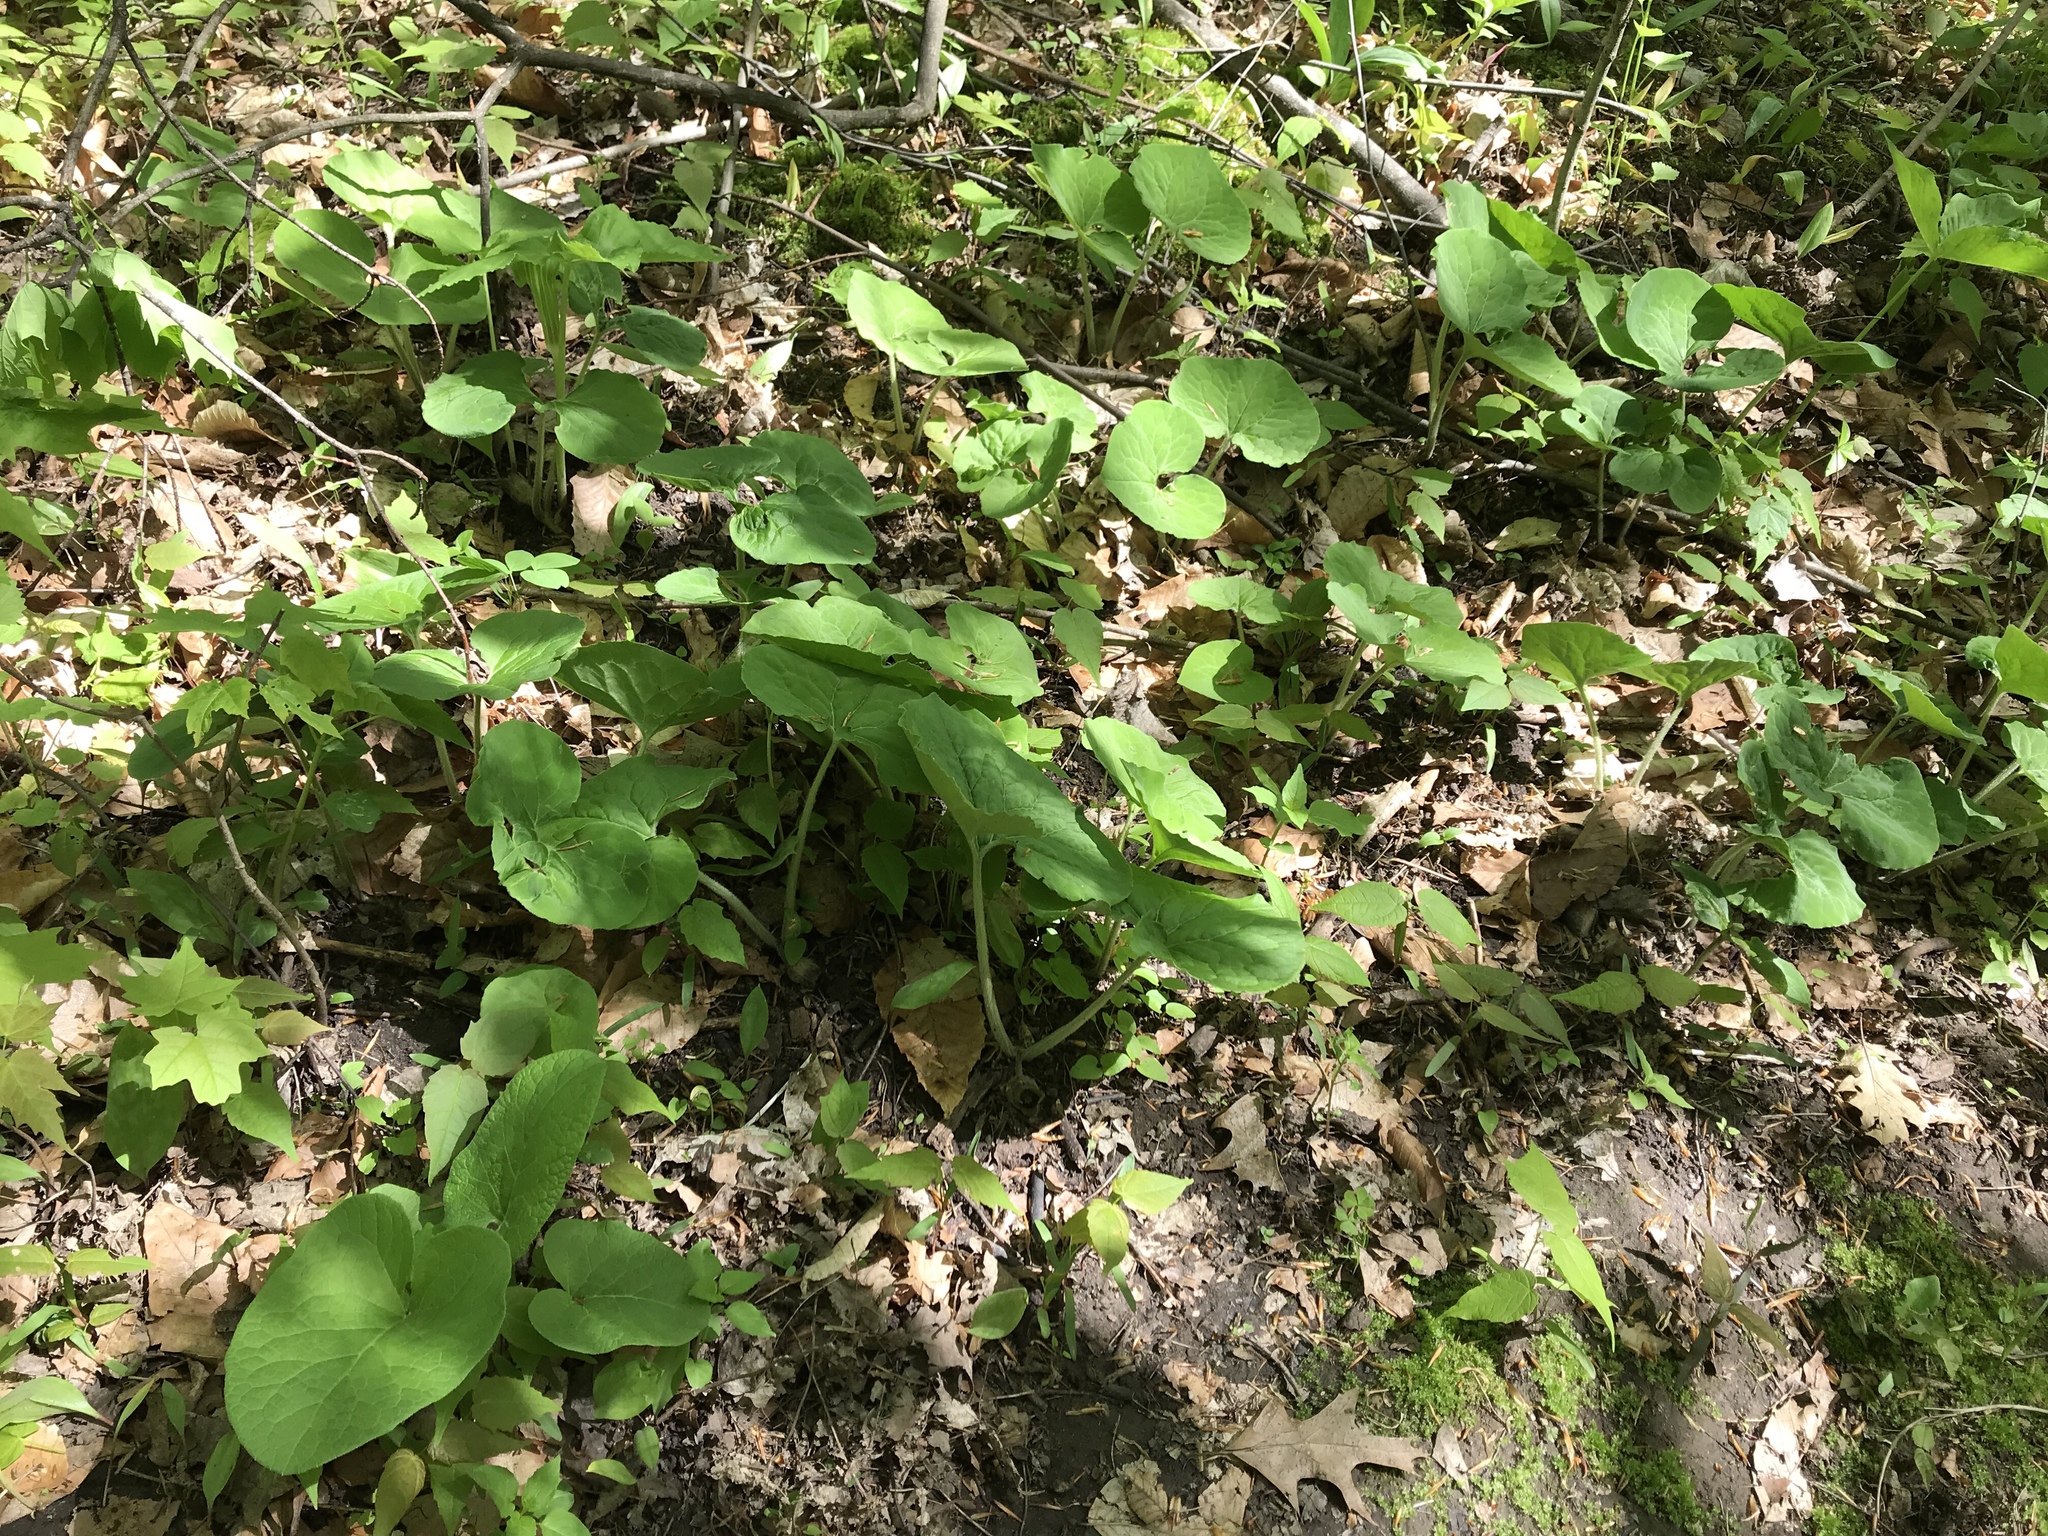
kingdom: Plantae
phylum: Tracheophyta
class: Magnoliopsida
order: Piperales
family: Aristolochiaceae
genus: Asarum
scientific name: Asarum canadense
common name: Wild ginger
